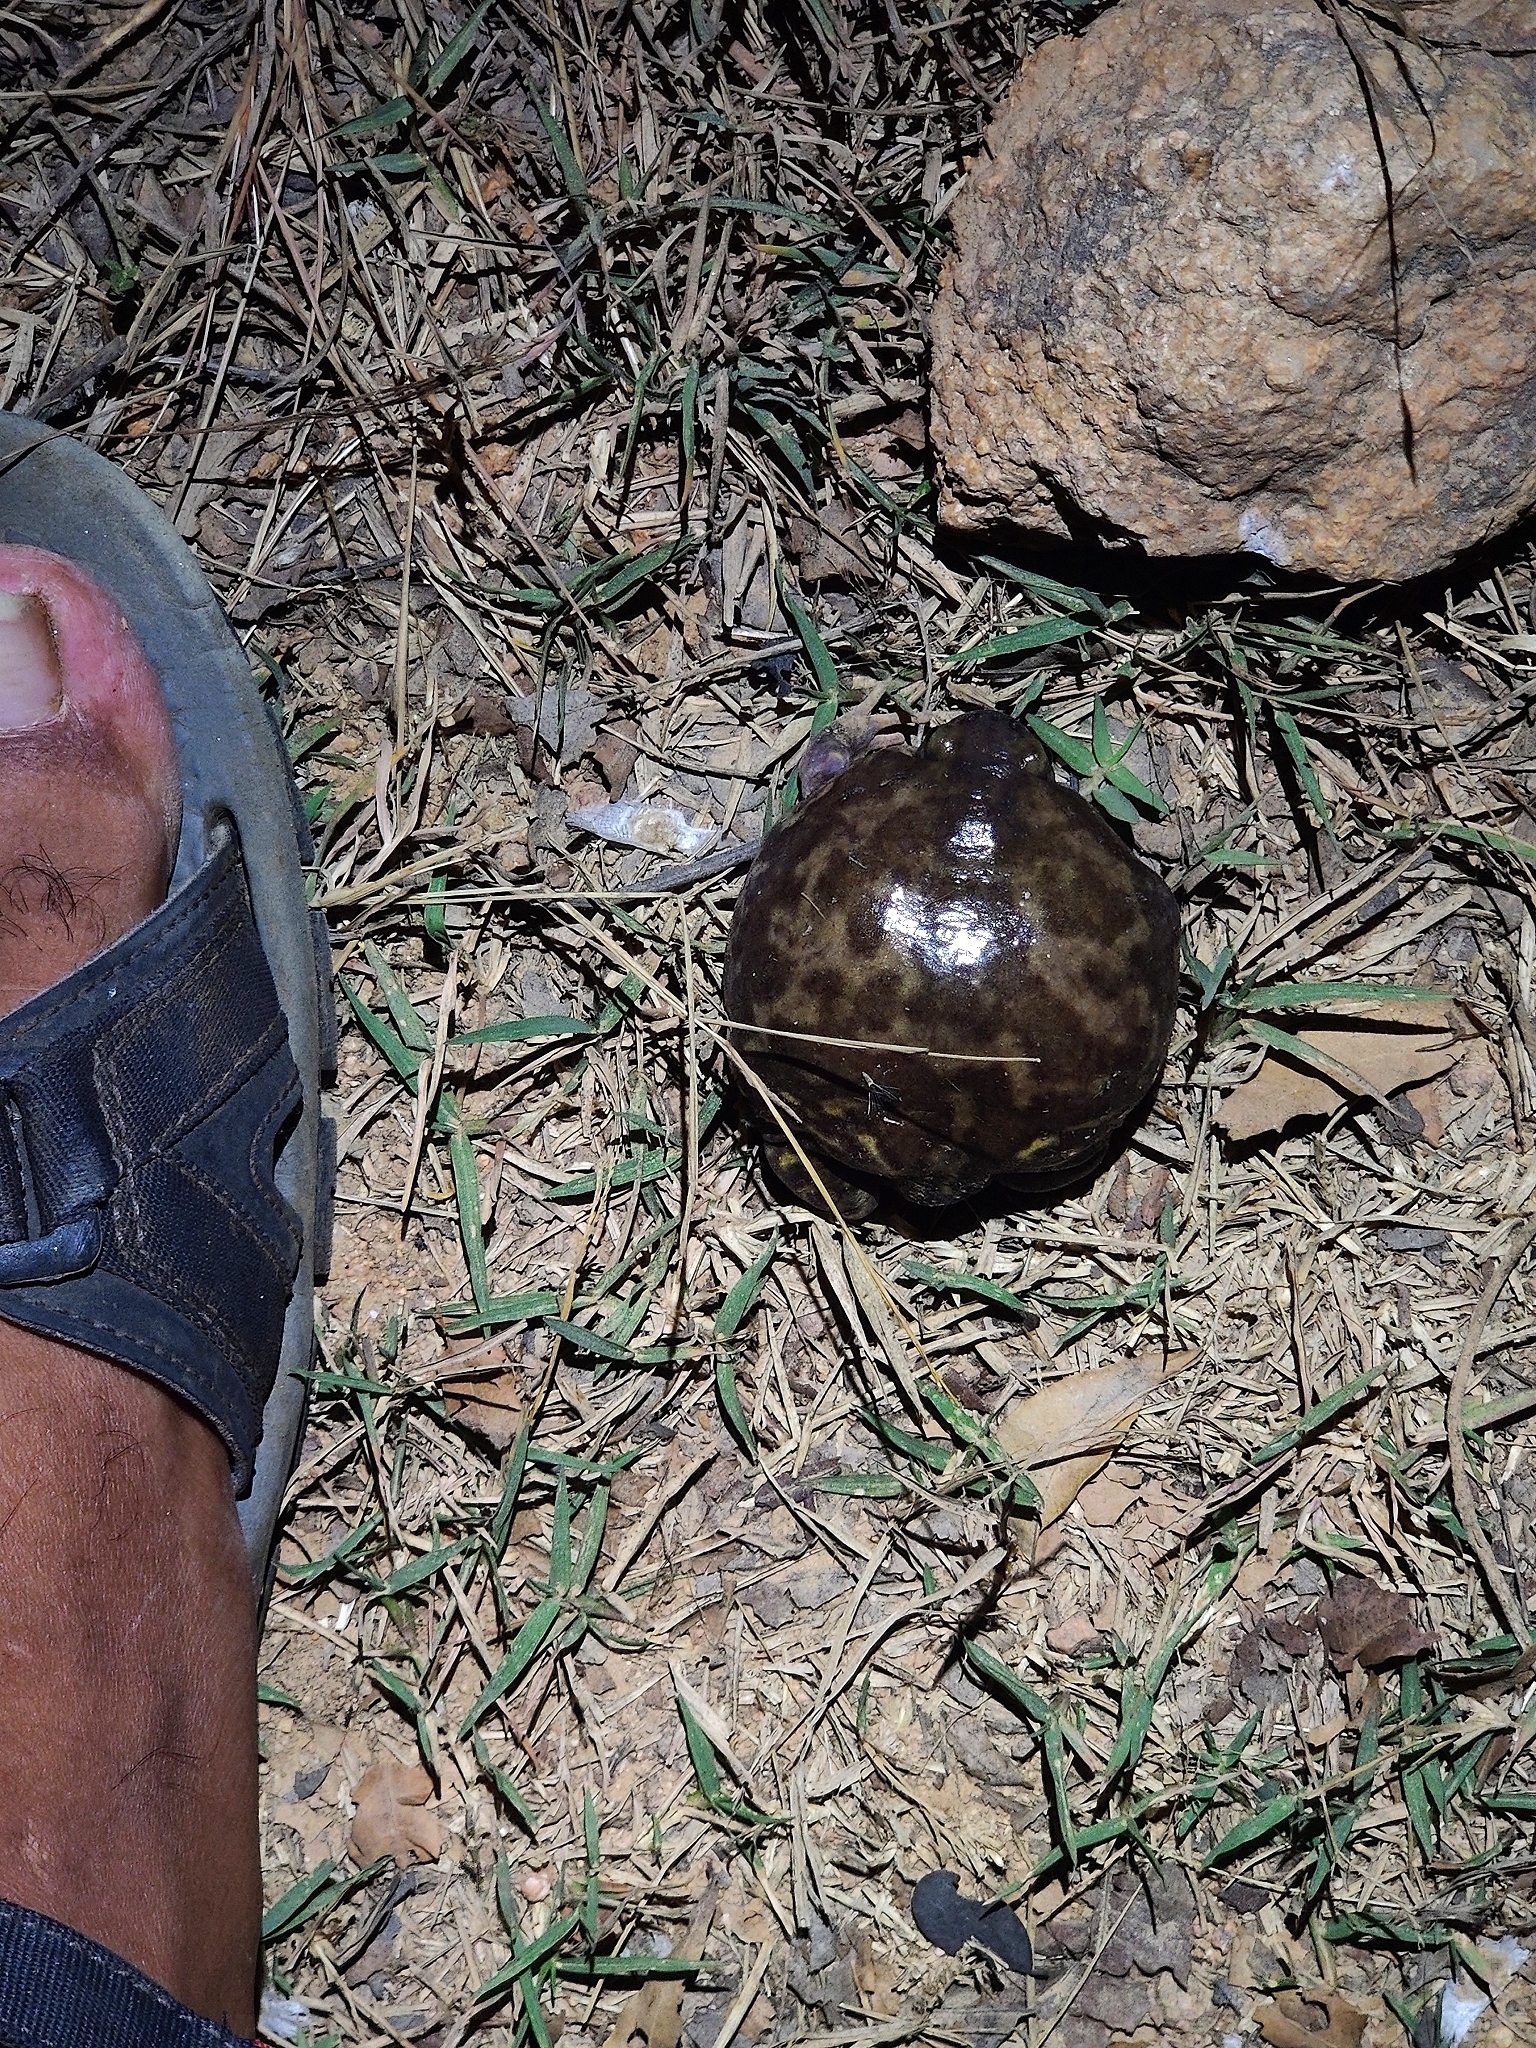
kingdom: Animalia
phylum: Chordata
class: Amphibia
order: Anura
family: Microhylidae
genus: Uperodon
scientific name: Uperodon systoma
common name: Balloon frog
